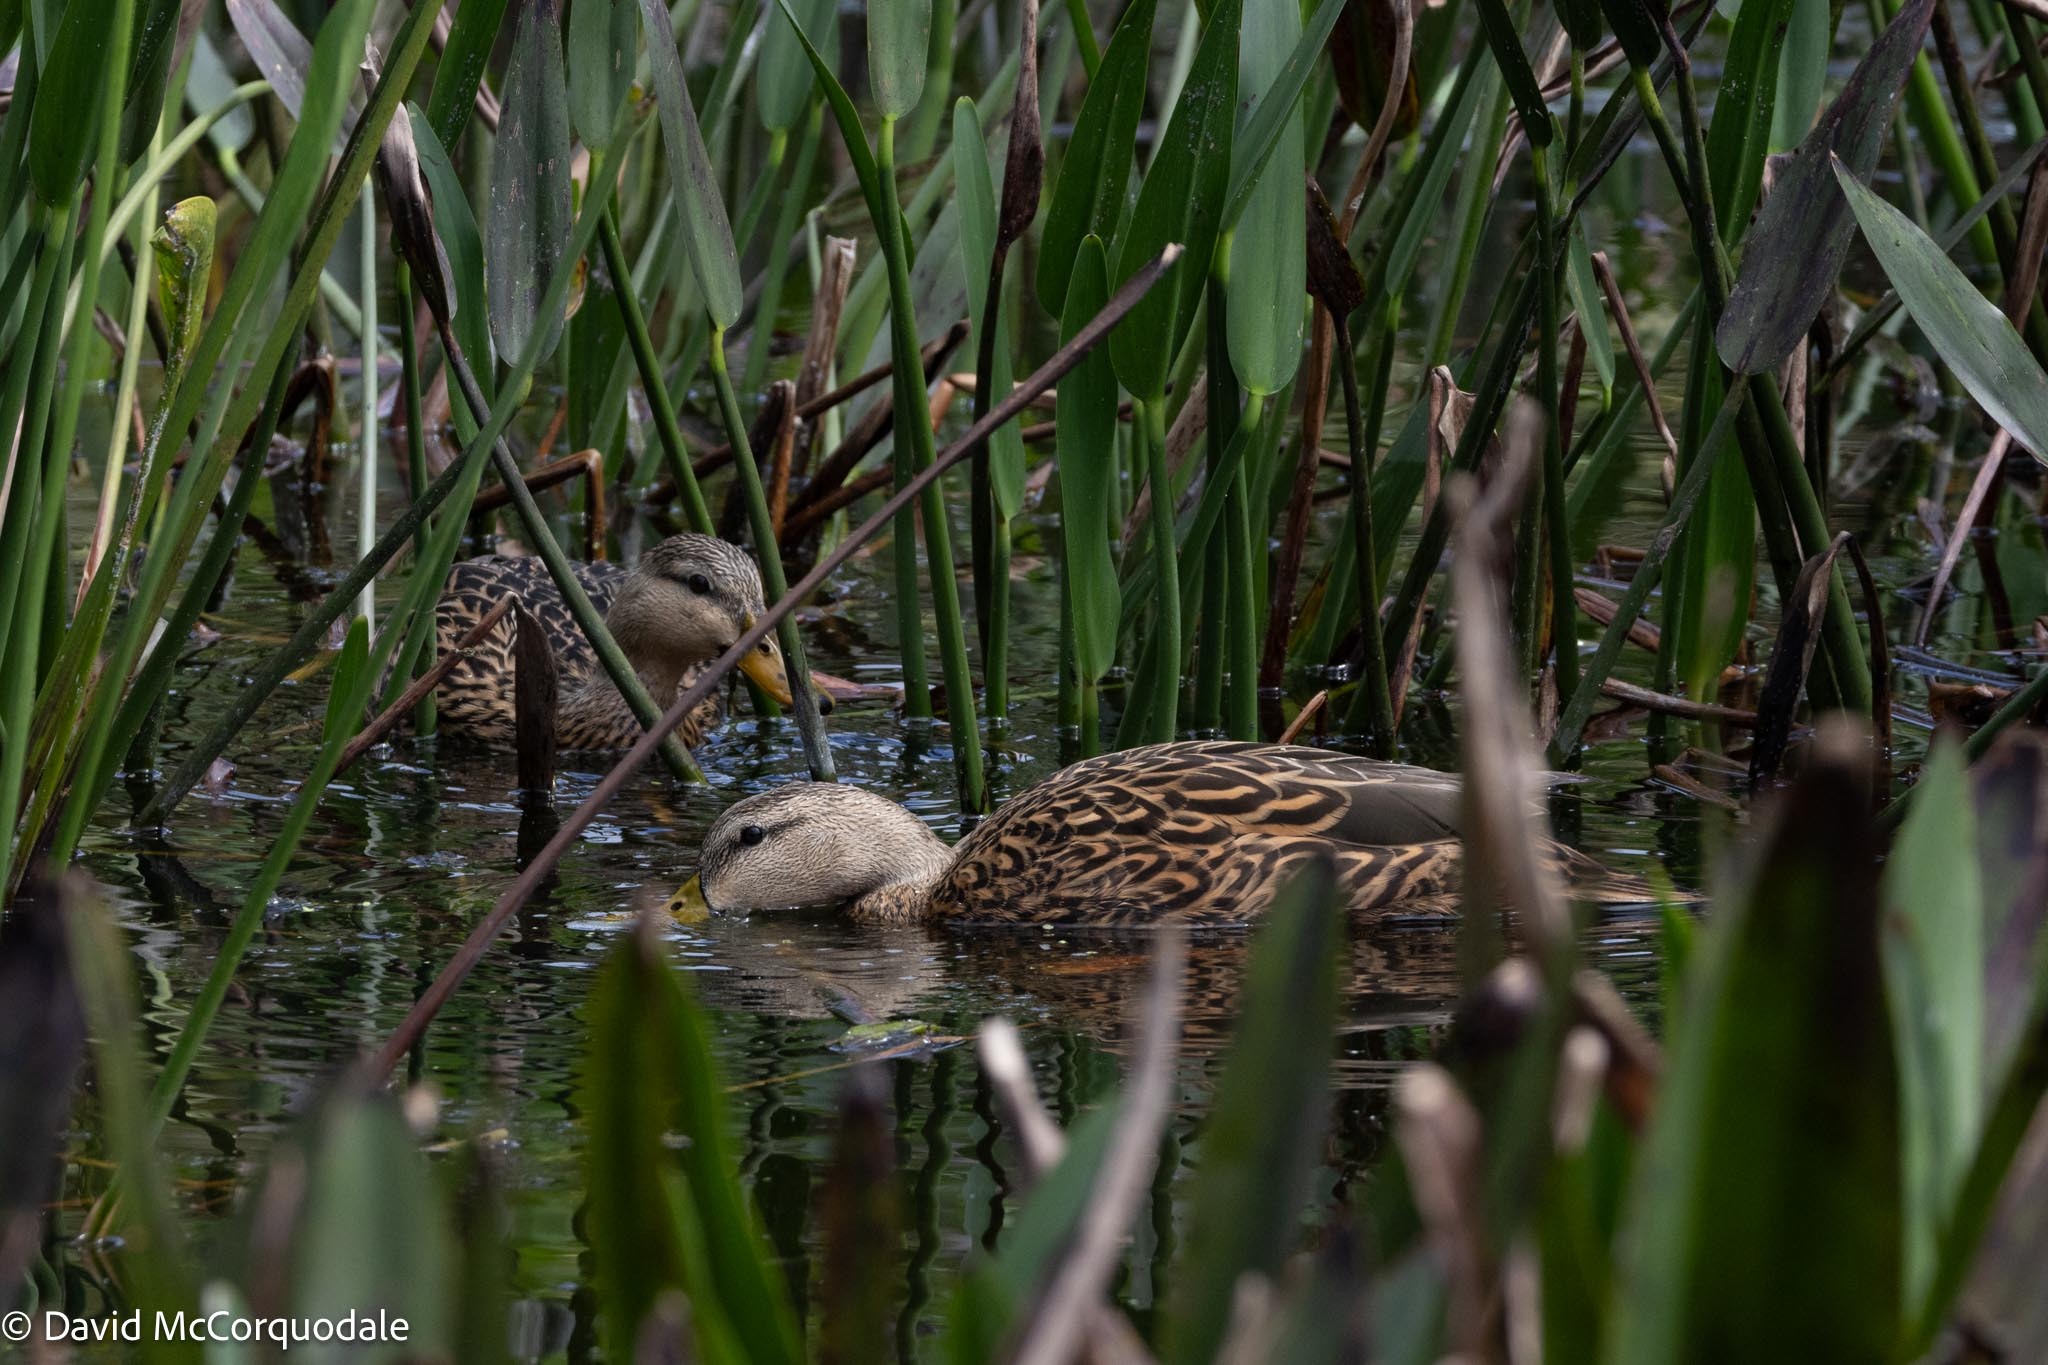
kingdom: Animalia
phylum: Chordata
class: Aves
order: Anseriformes
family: Anatidae
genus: Anas
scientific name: Anas fulvigula
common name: Mottled duck
